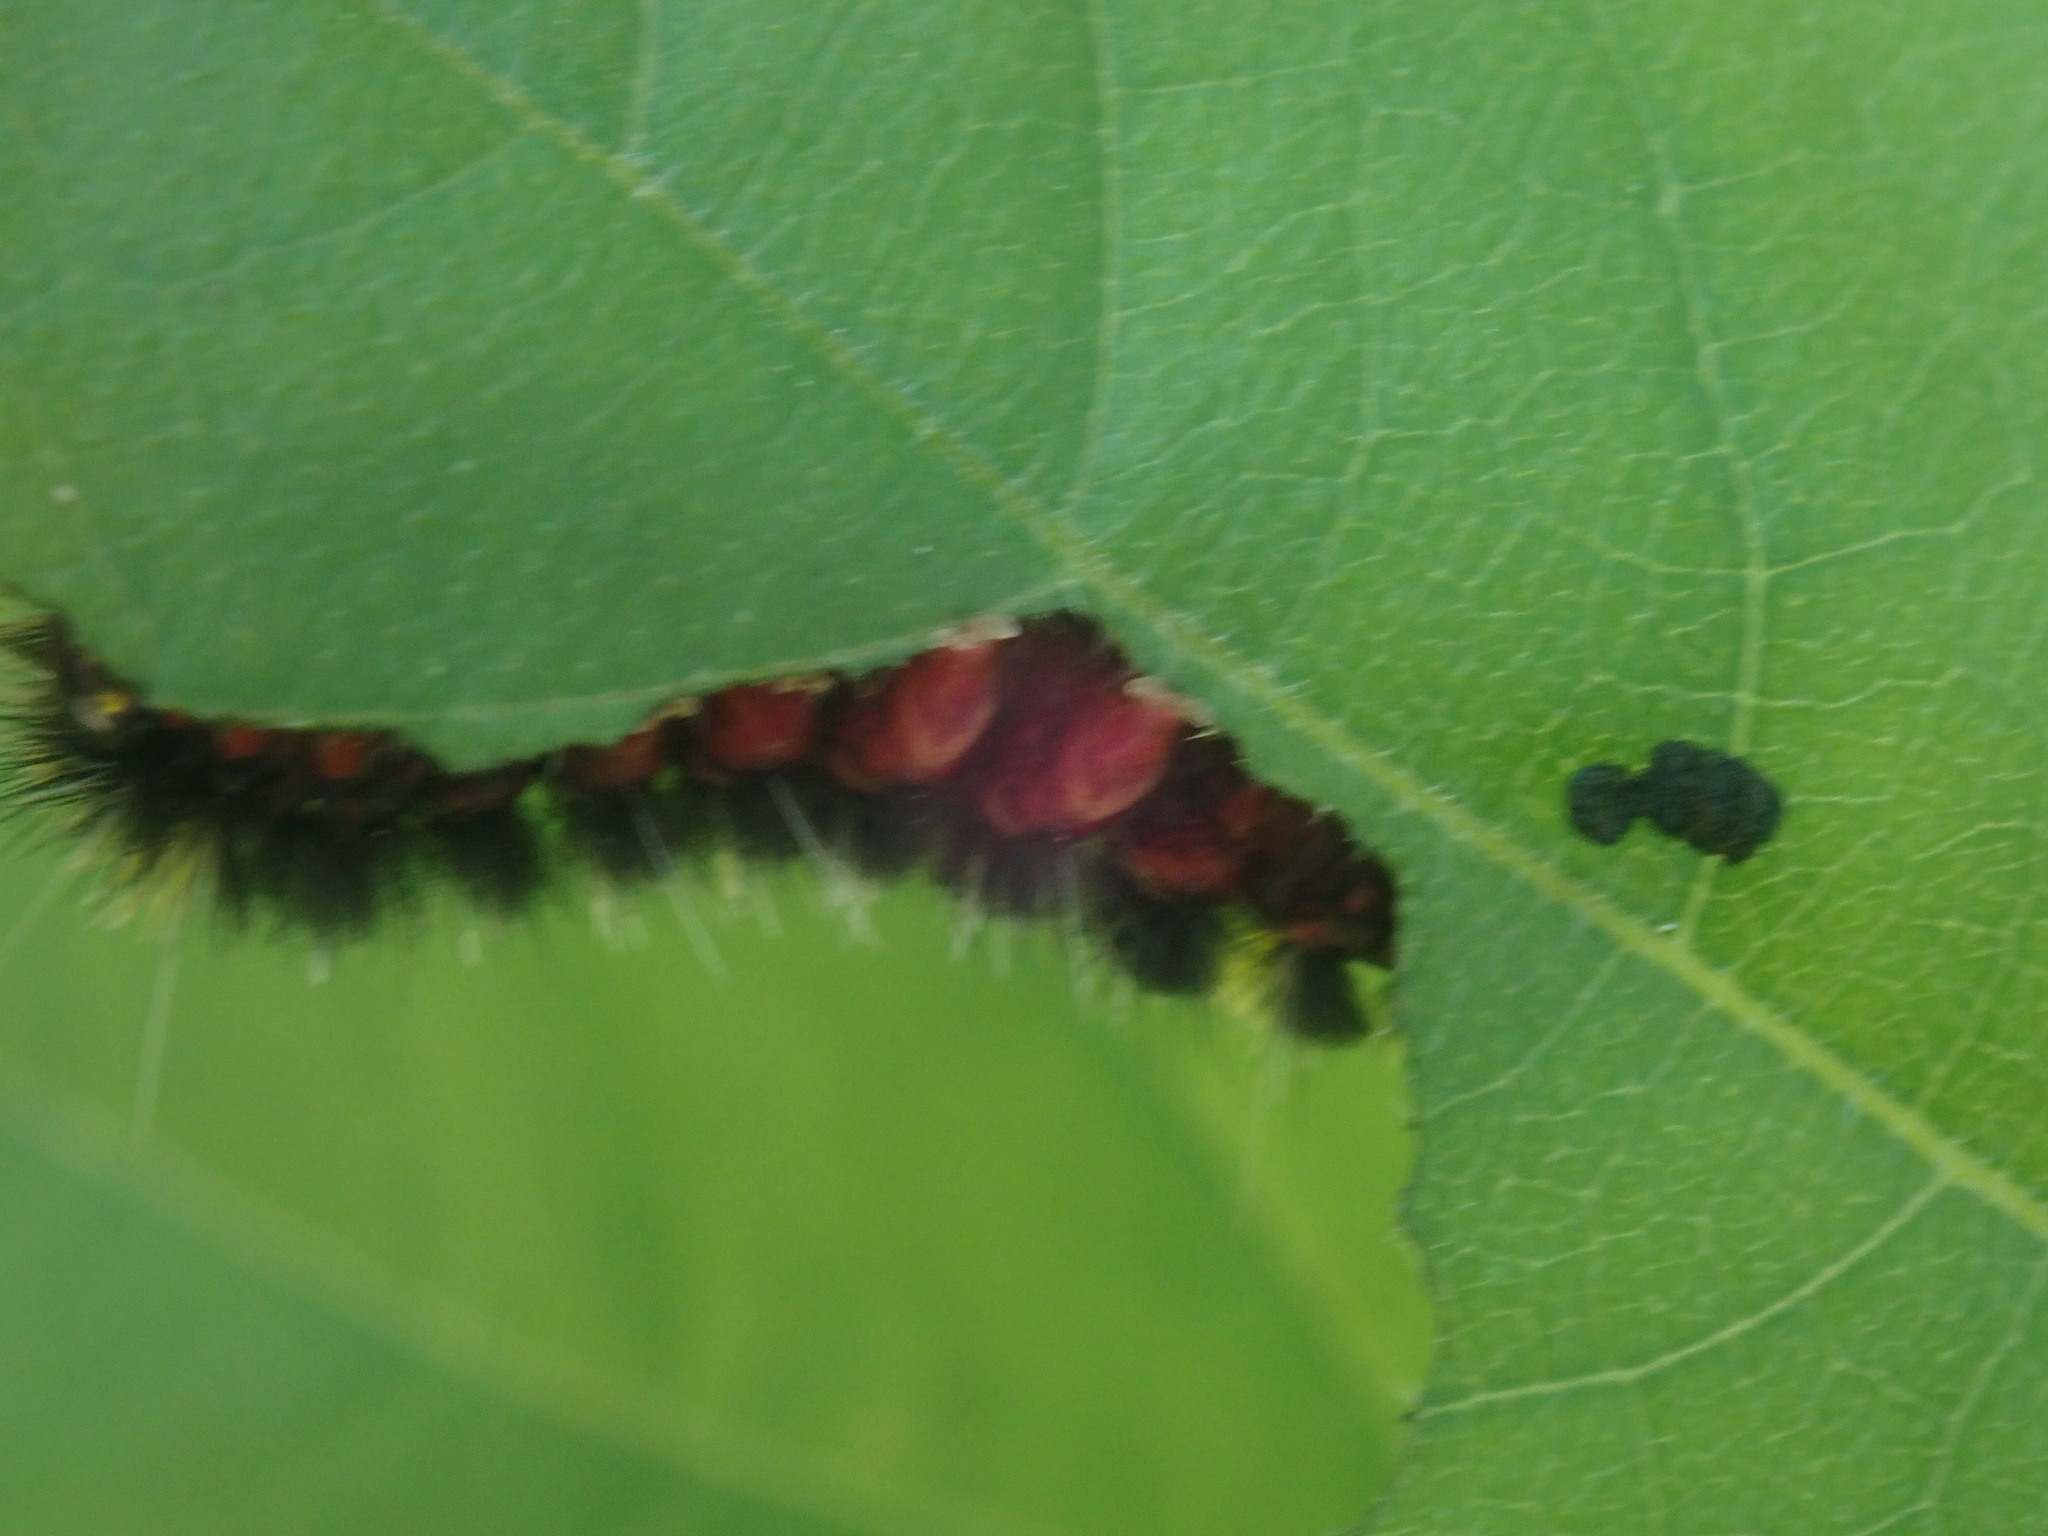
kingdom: Animalia
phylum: Arthropoda
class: Insecta
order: Lepidoptera
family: Erebidae
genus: Hypocrisias
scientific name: Hypocrisias minima
